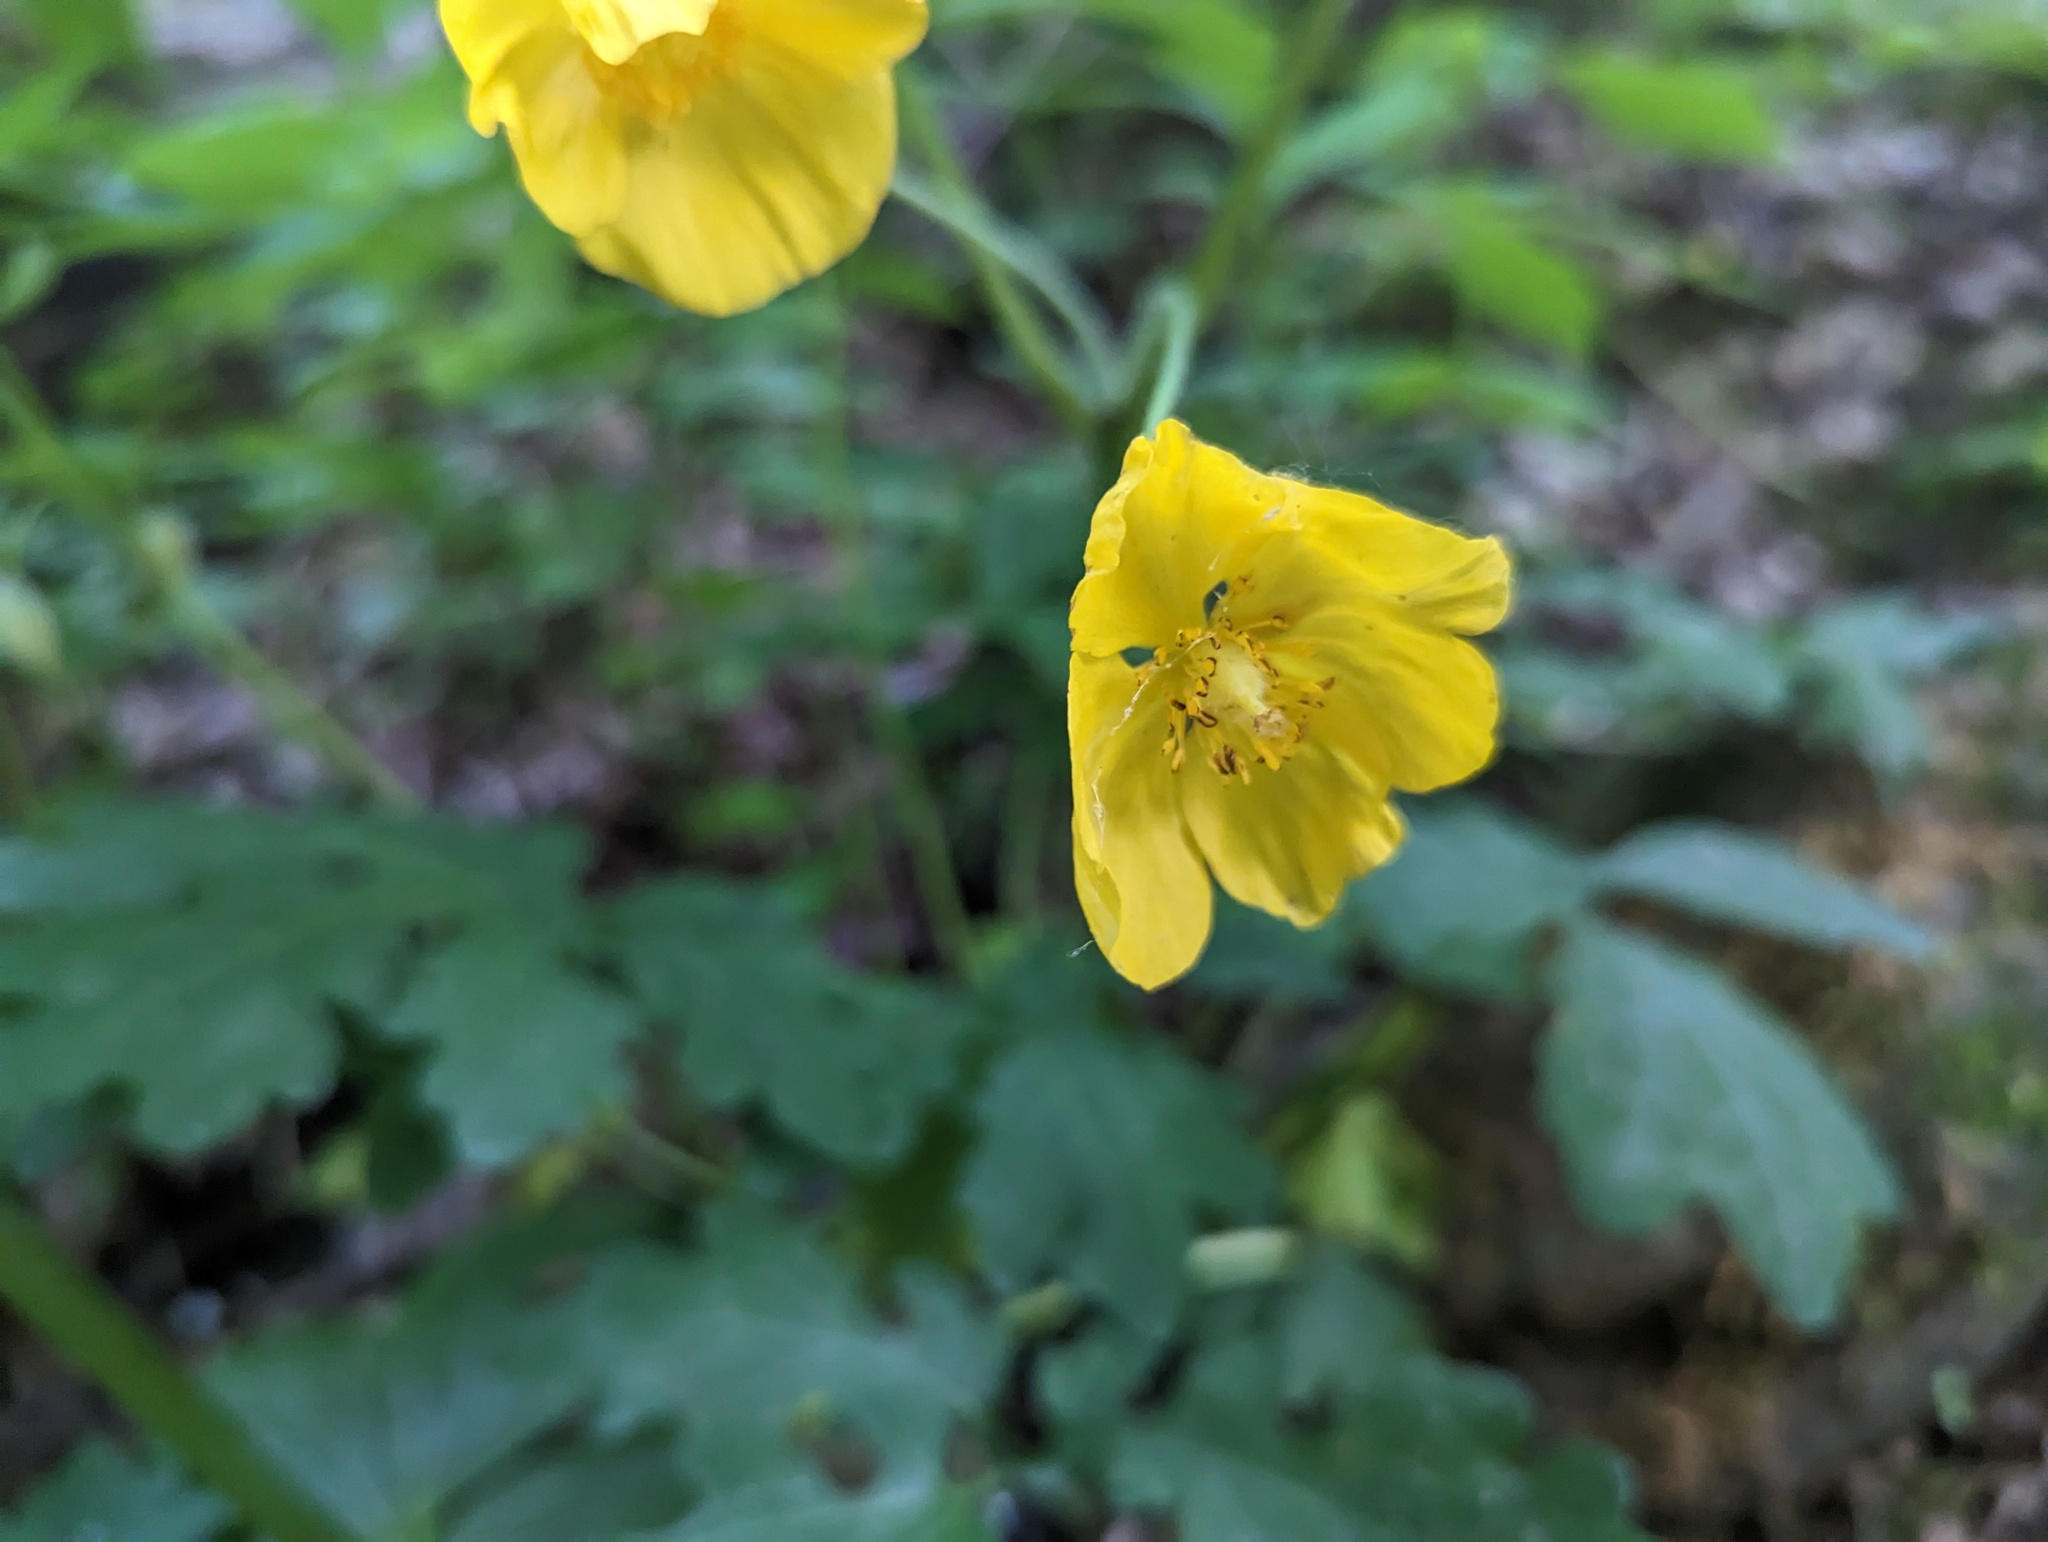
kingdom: Plantae
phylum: Tracheophyta
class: Magnoliopsida
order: Ranunculales
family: Papaveraceae
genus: Stylophorum
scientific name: Stylophorum diphyllum
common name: Celandine poppy
